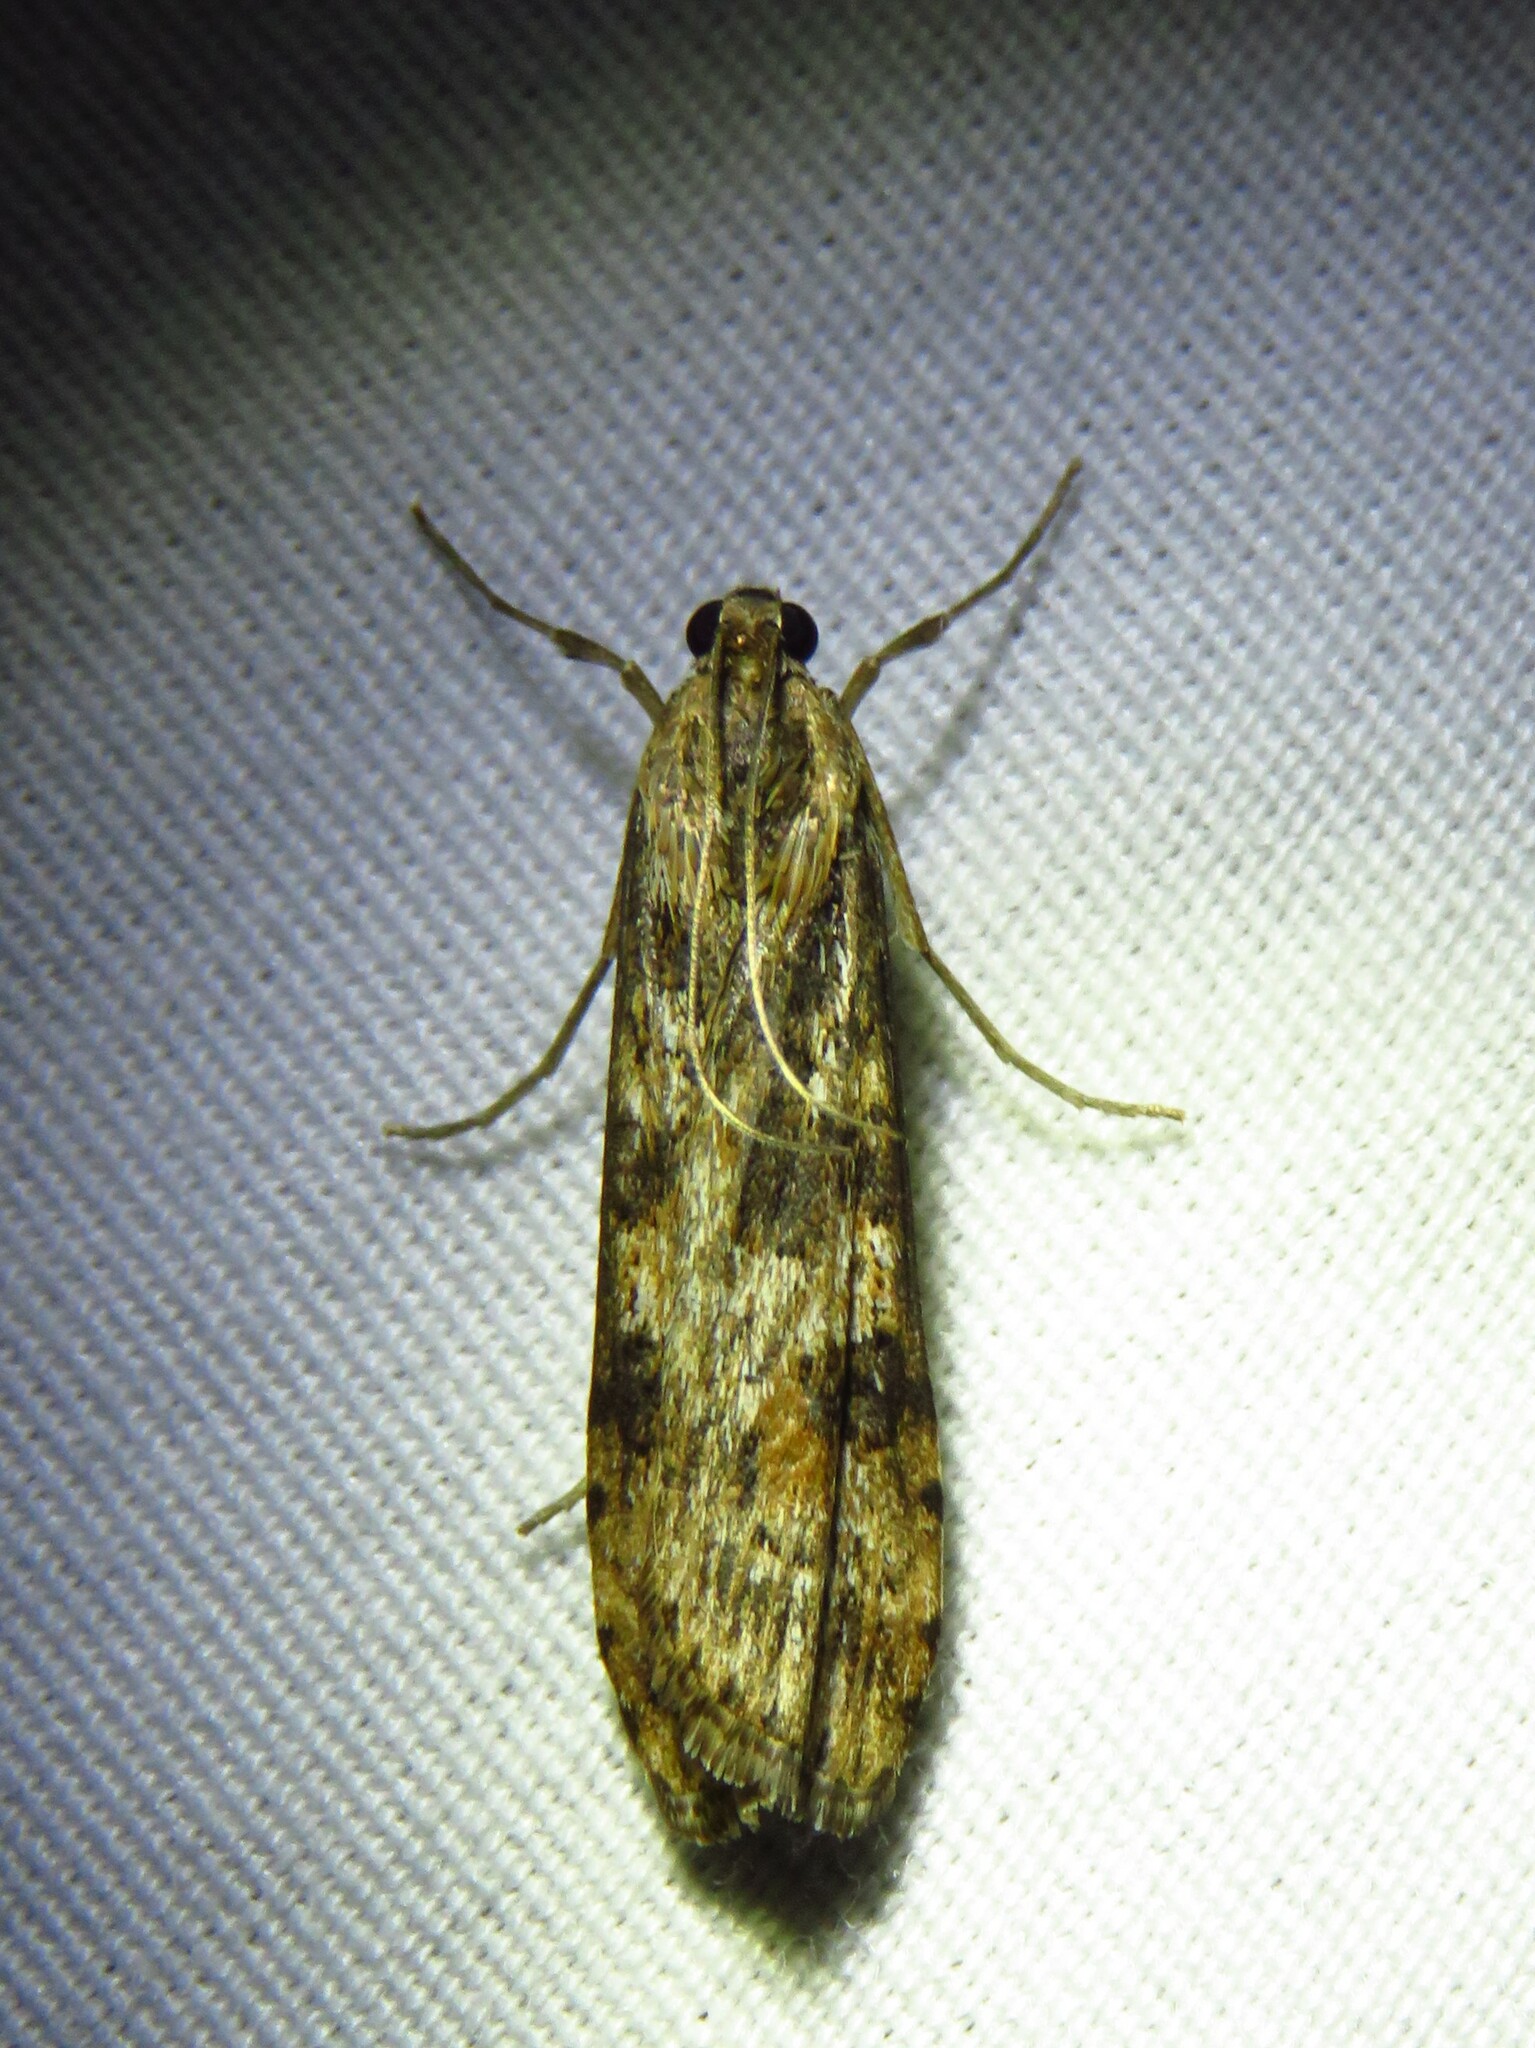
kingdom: Animalia
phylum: Arthropoda
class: Insecta
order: Lepidoptera
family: Crambidae
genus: Nomophila
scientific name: Nomophila nearctica
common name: American rush veneer
